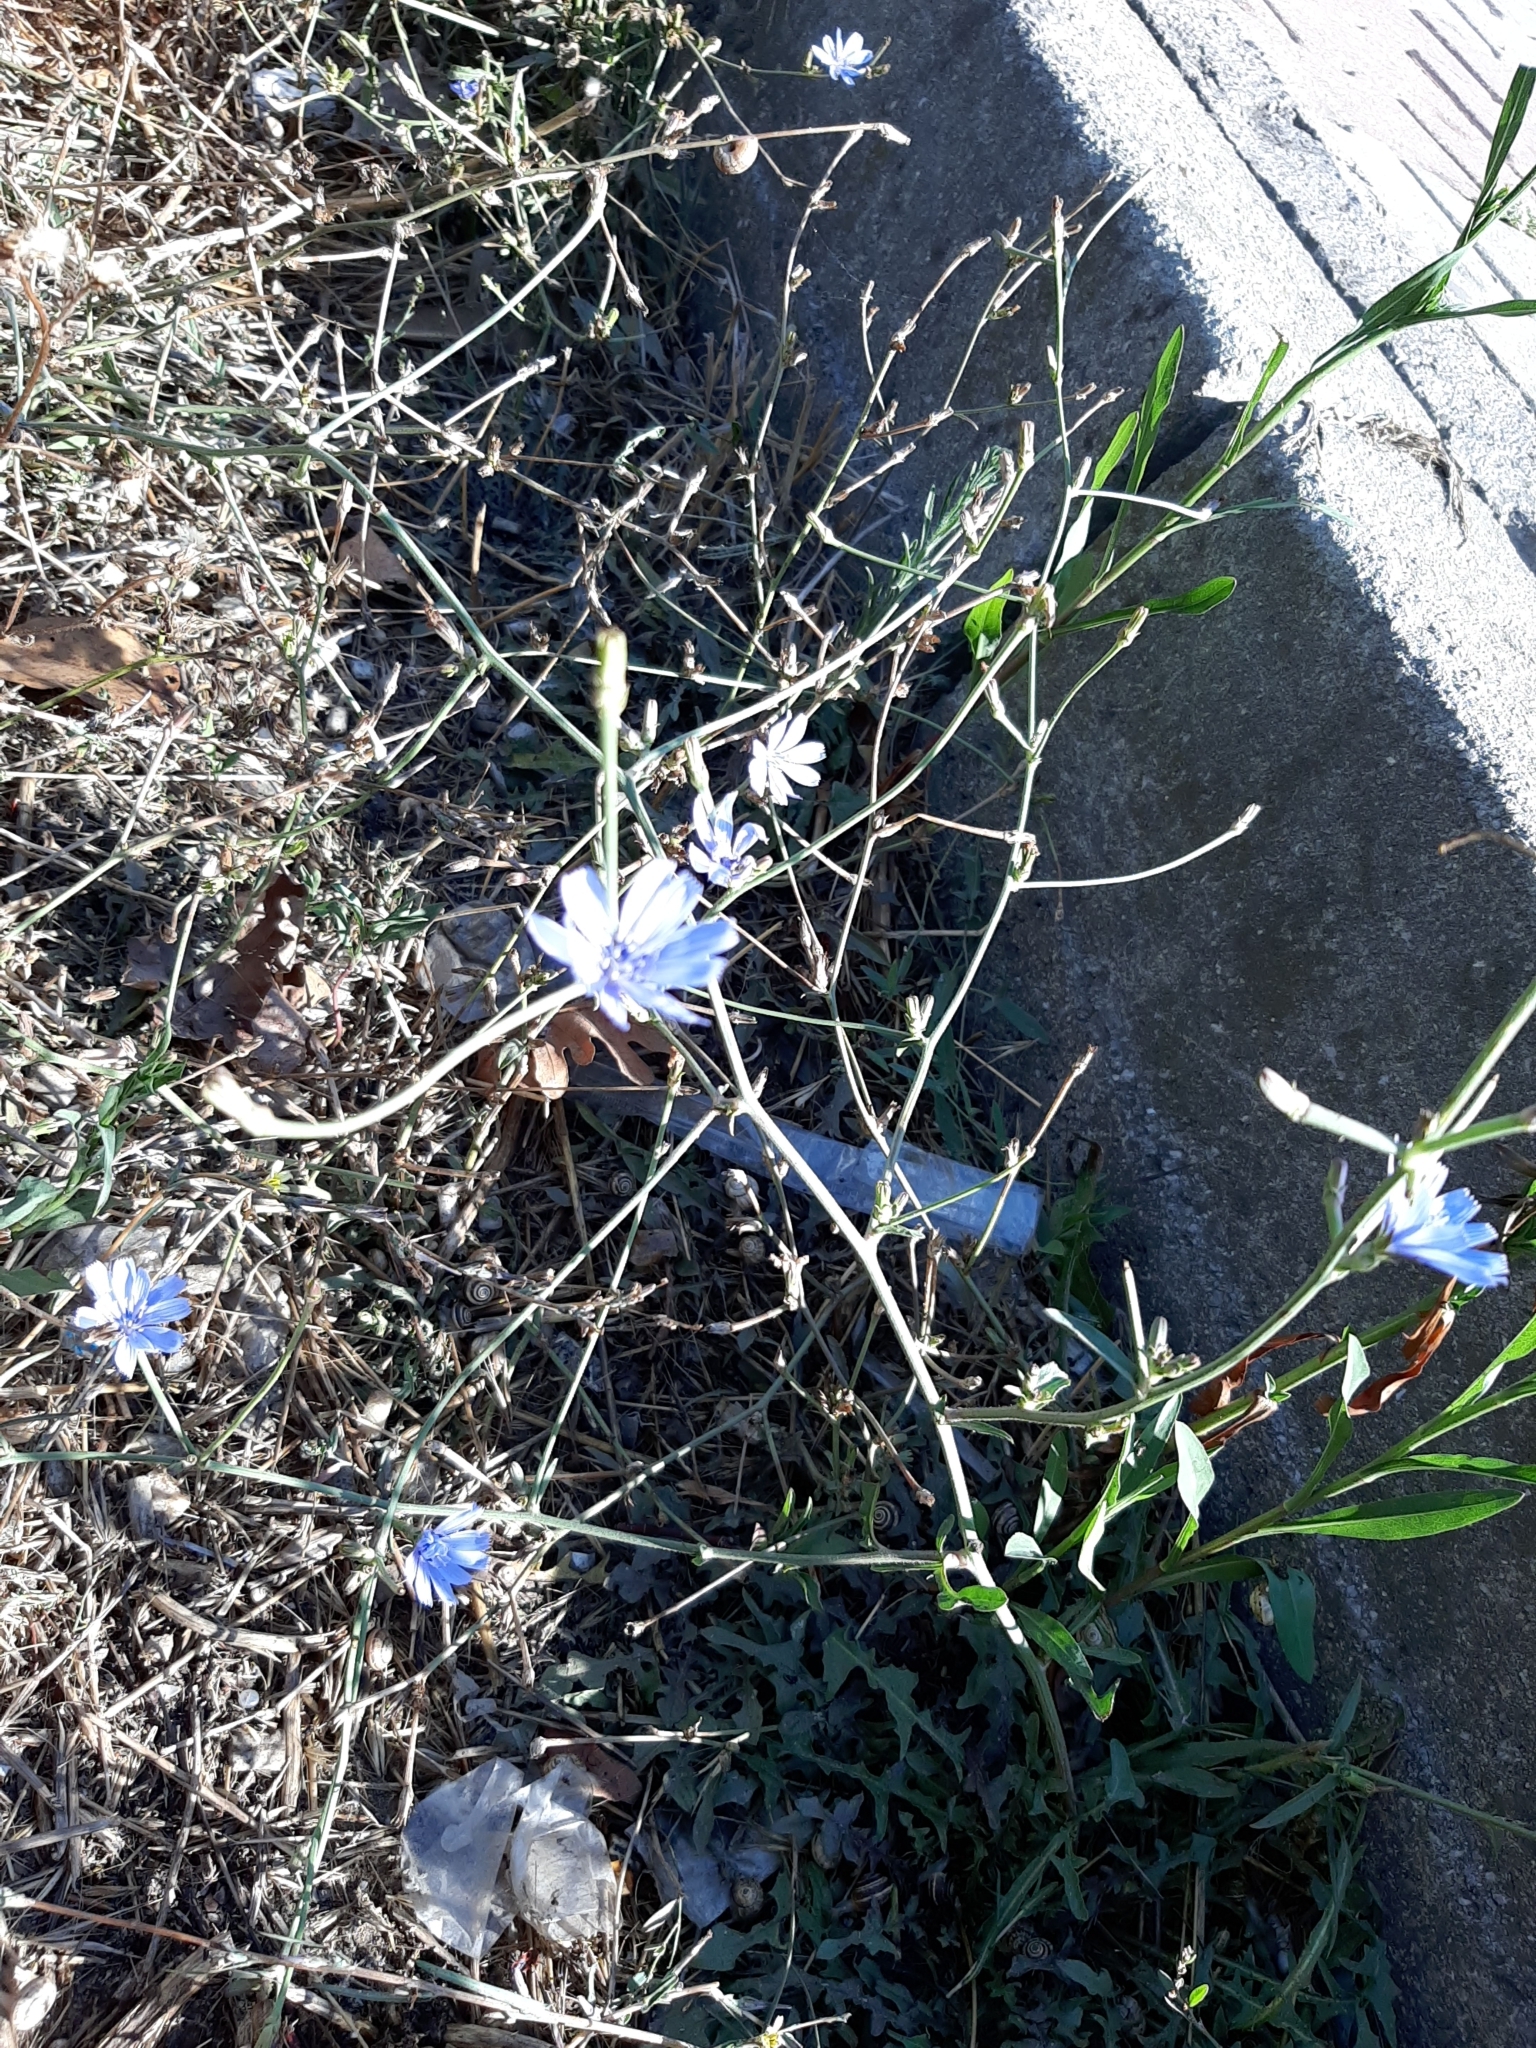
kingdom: Plantae
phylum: Tracheophyta
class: Magnoliopsida
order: Asterales
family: Asteraceae
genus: Cichorium
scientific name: Cichorium intybus
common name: Chicory
